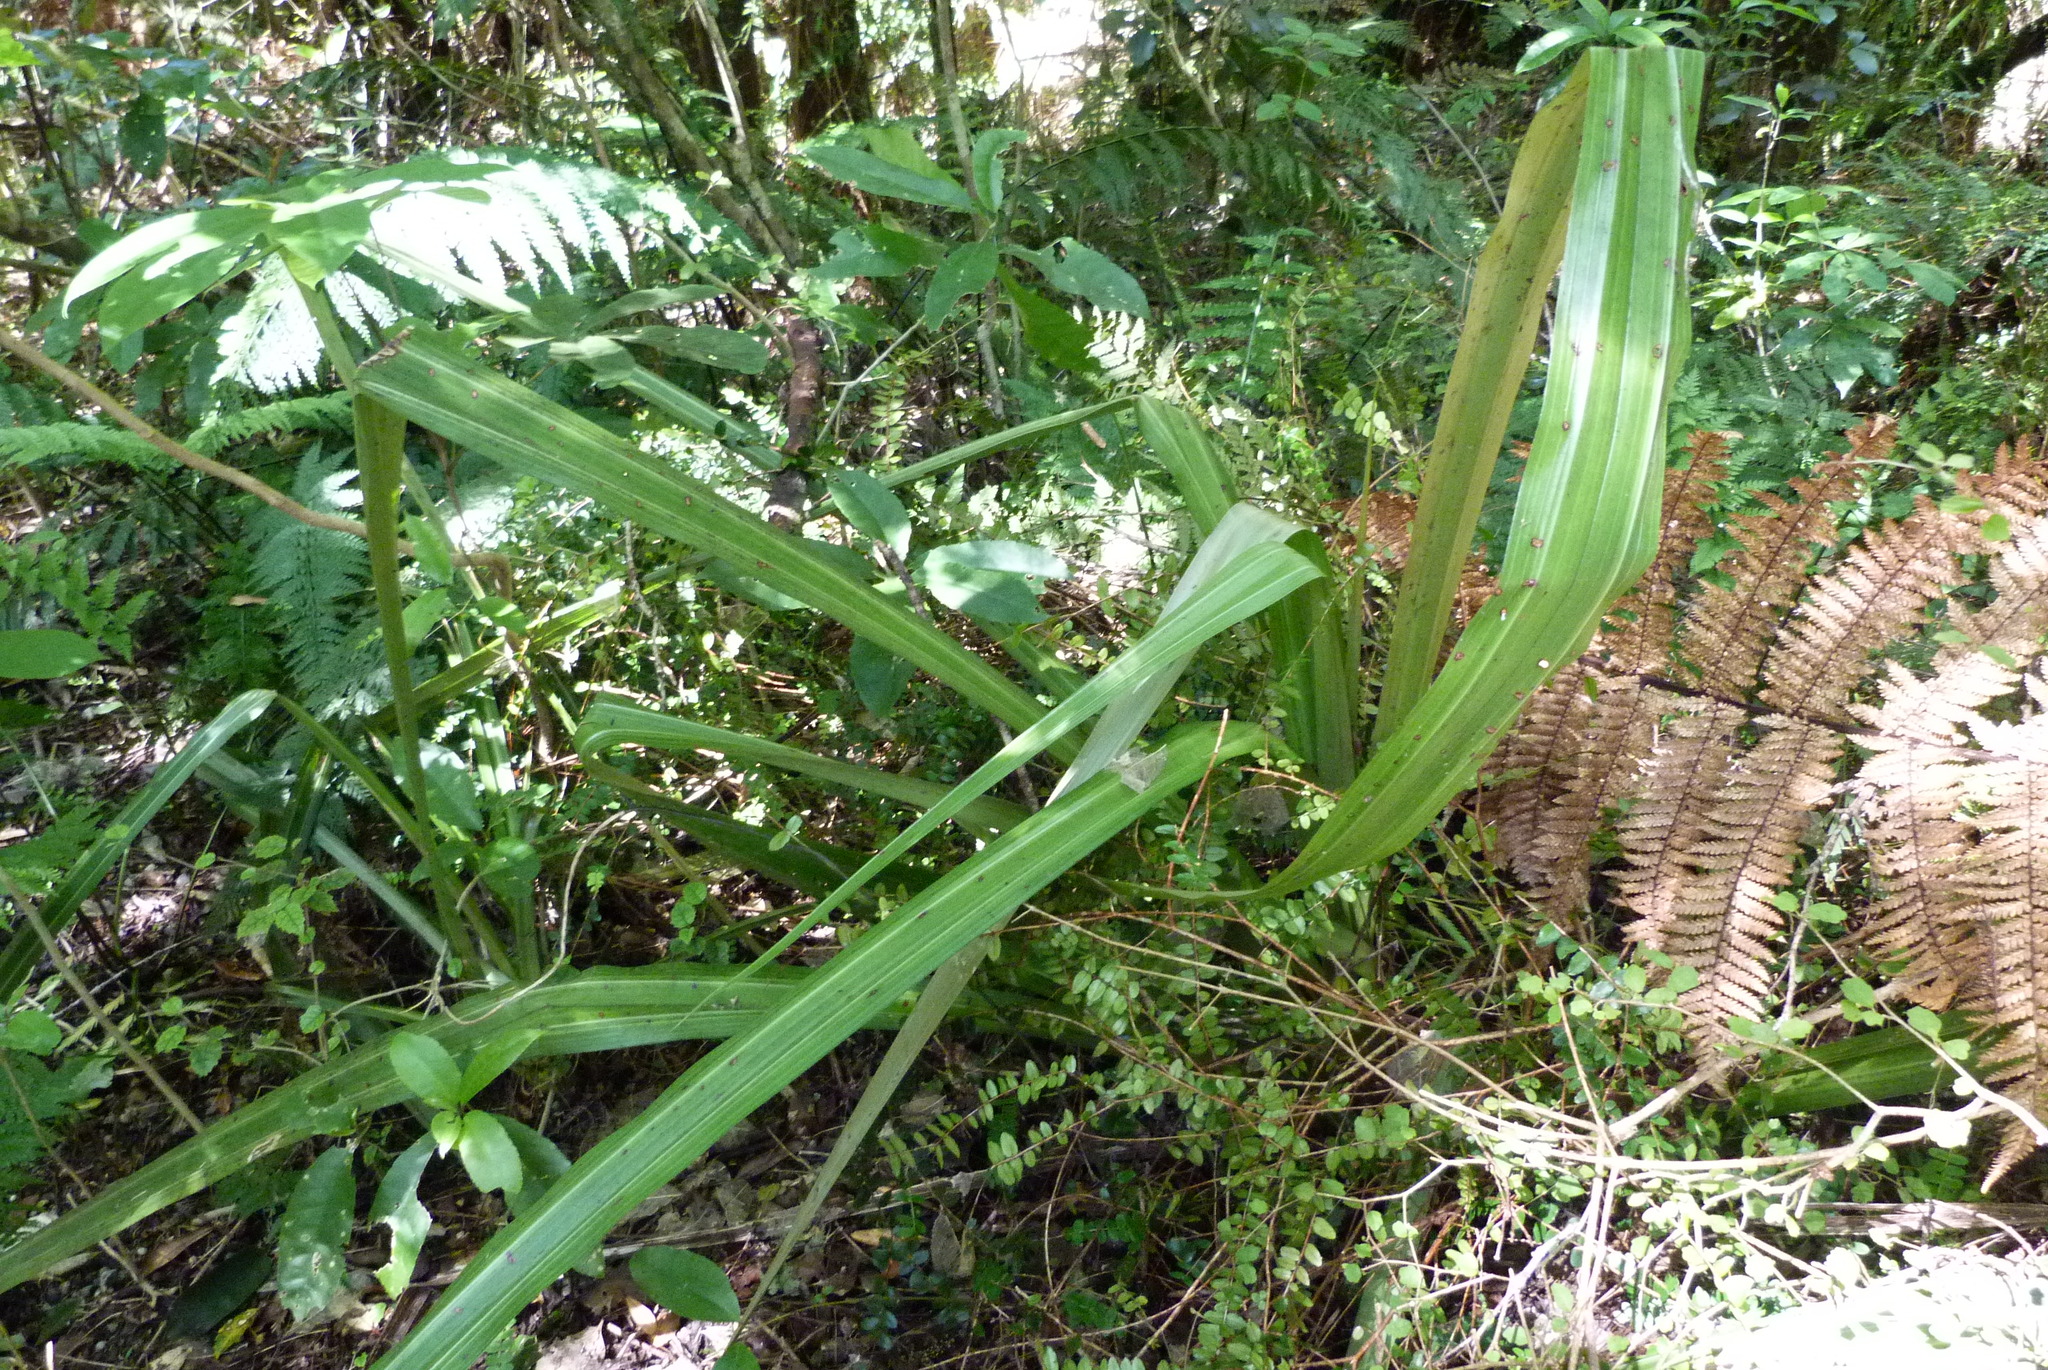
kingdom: Plantae
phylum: Tracheophyta
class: Liliopsida
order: Asparagales
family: Asteliaceae
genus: Astelia
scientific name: Astelia grandis
